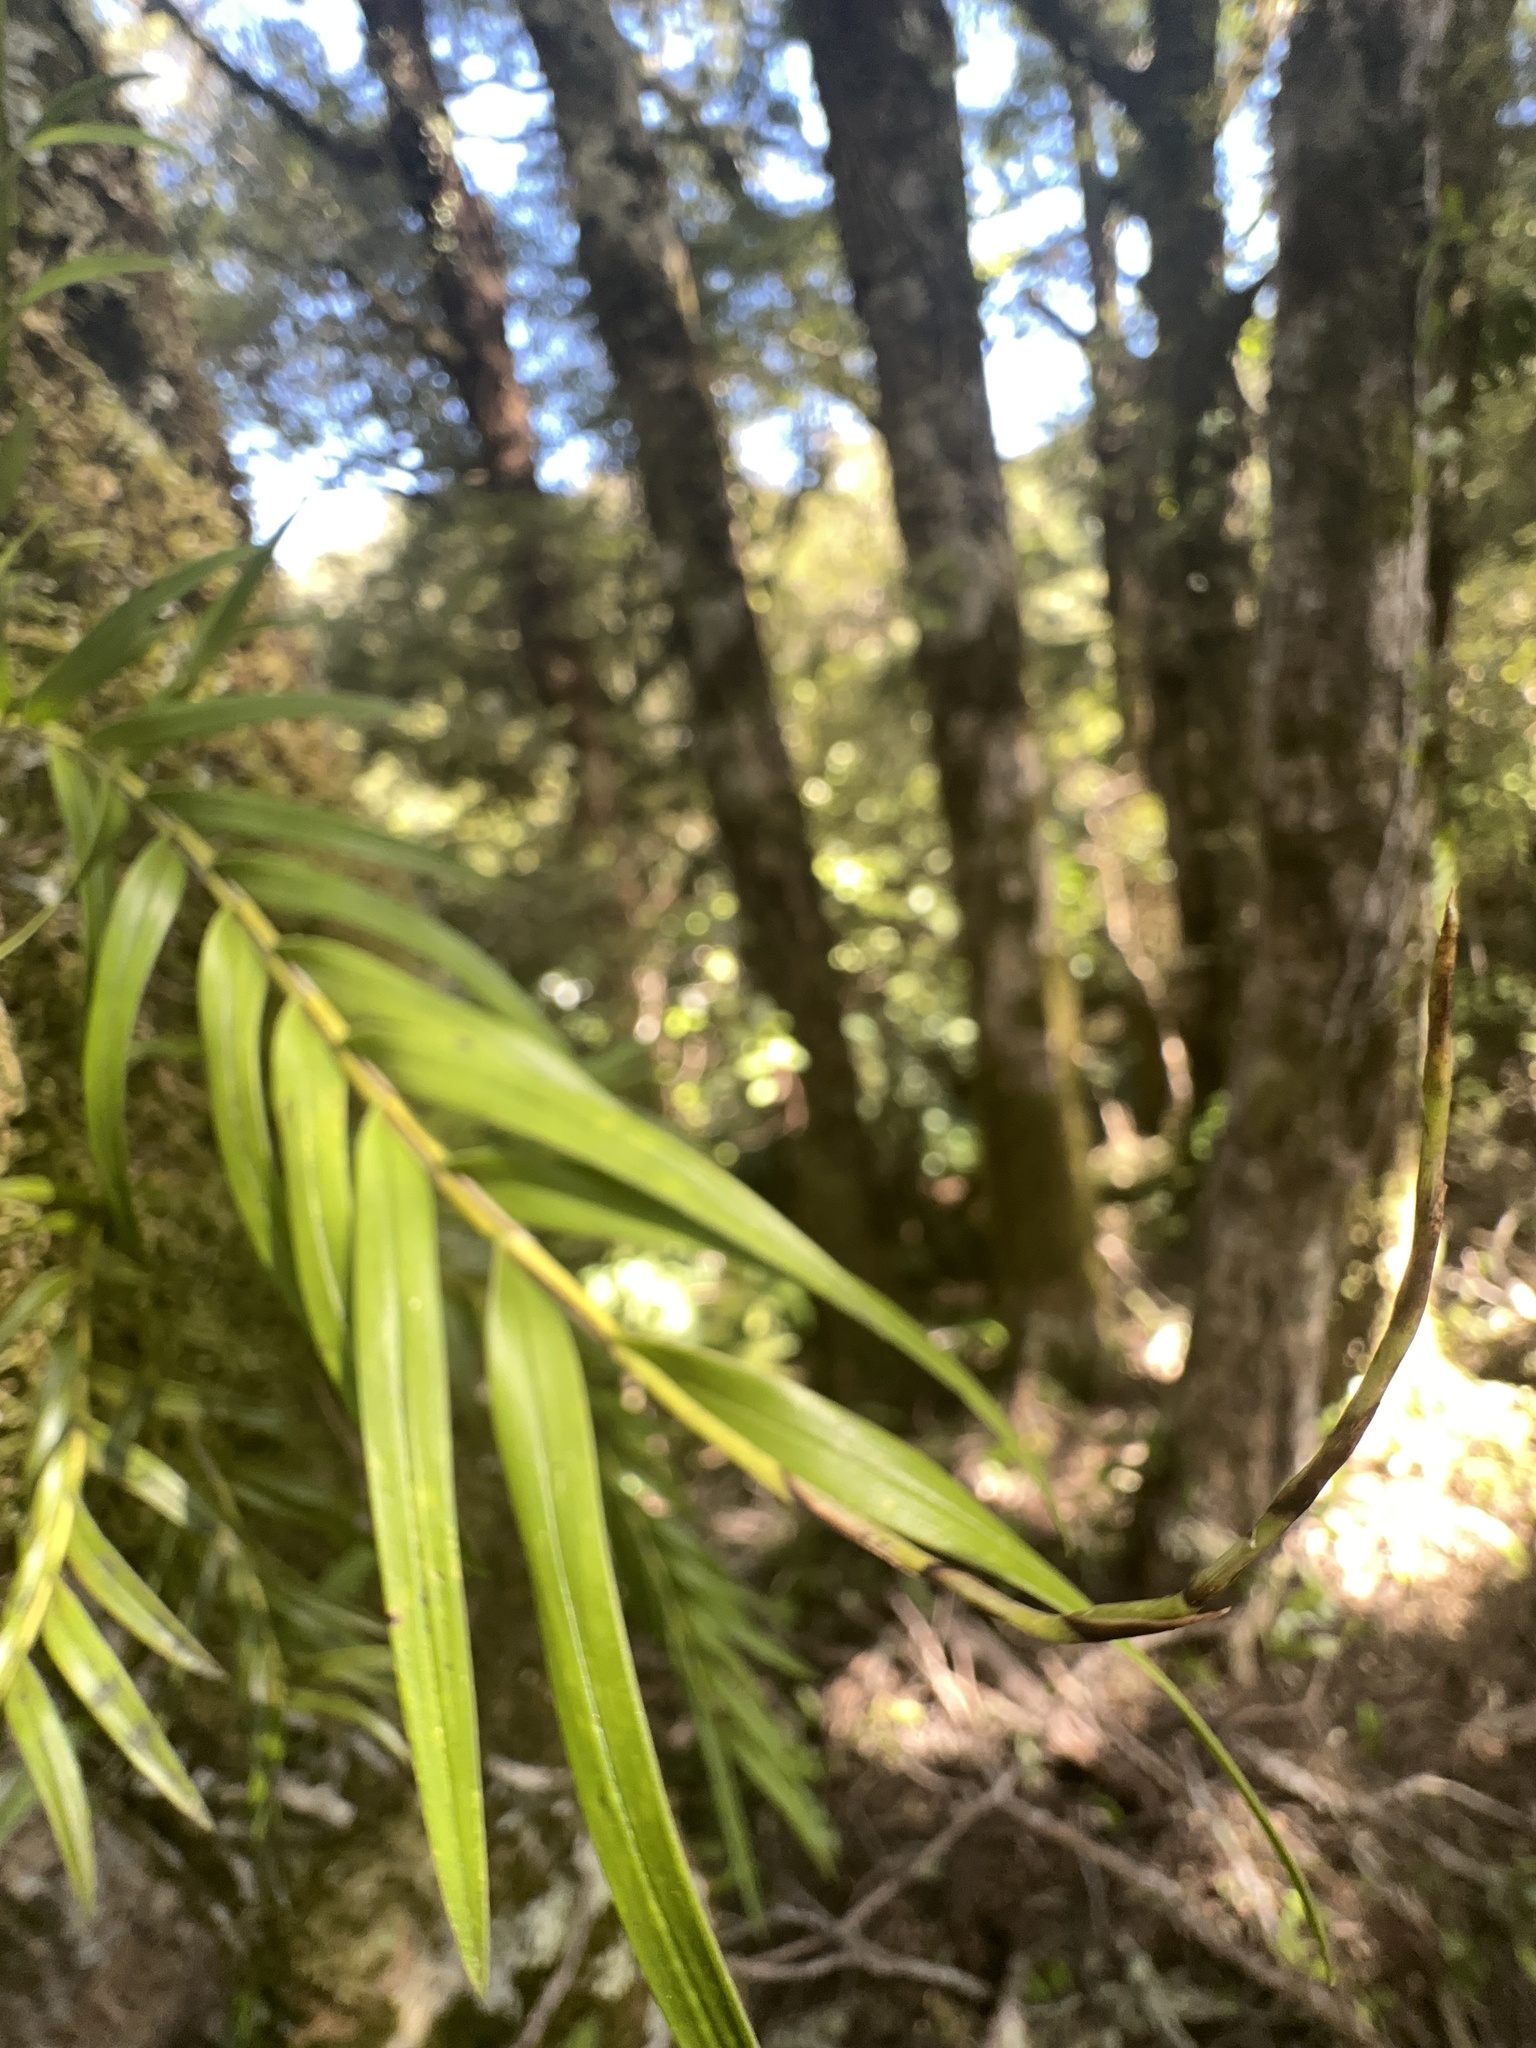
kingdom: Plantae
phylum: Tracheophyta
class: Liliopsida
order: Asparagales
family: Orchidaceae
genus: Earina
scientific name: Earina autumnalis
